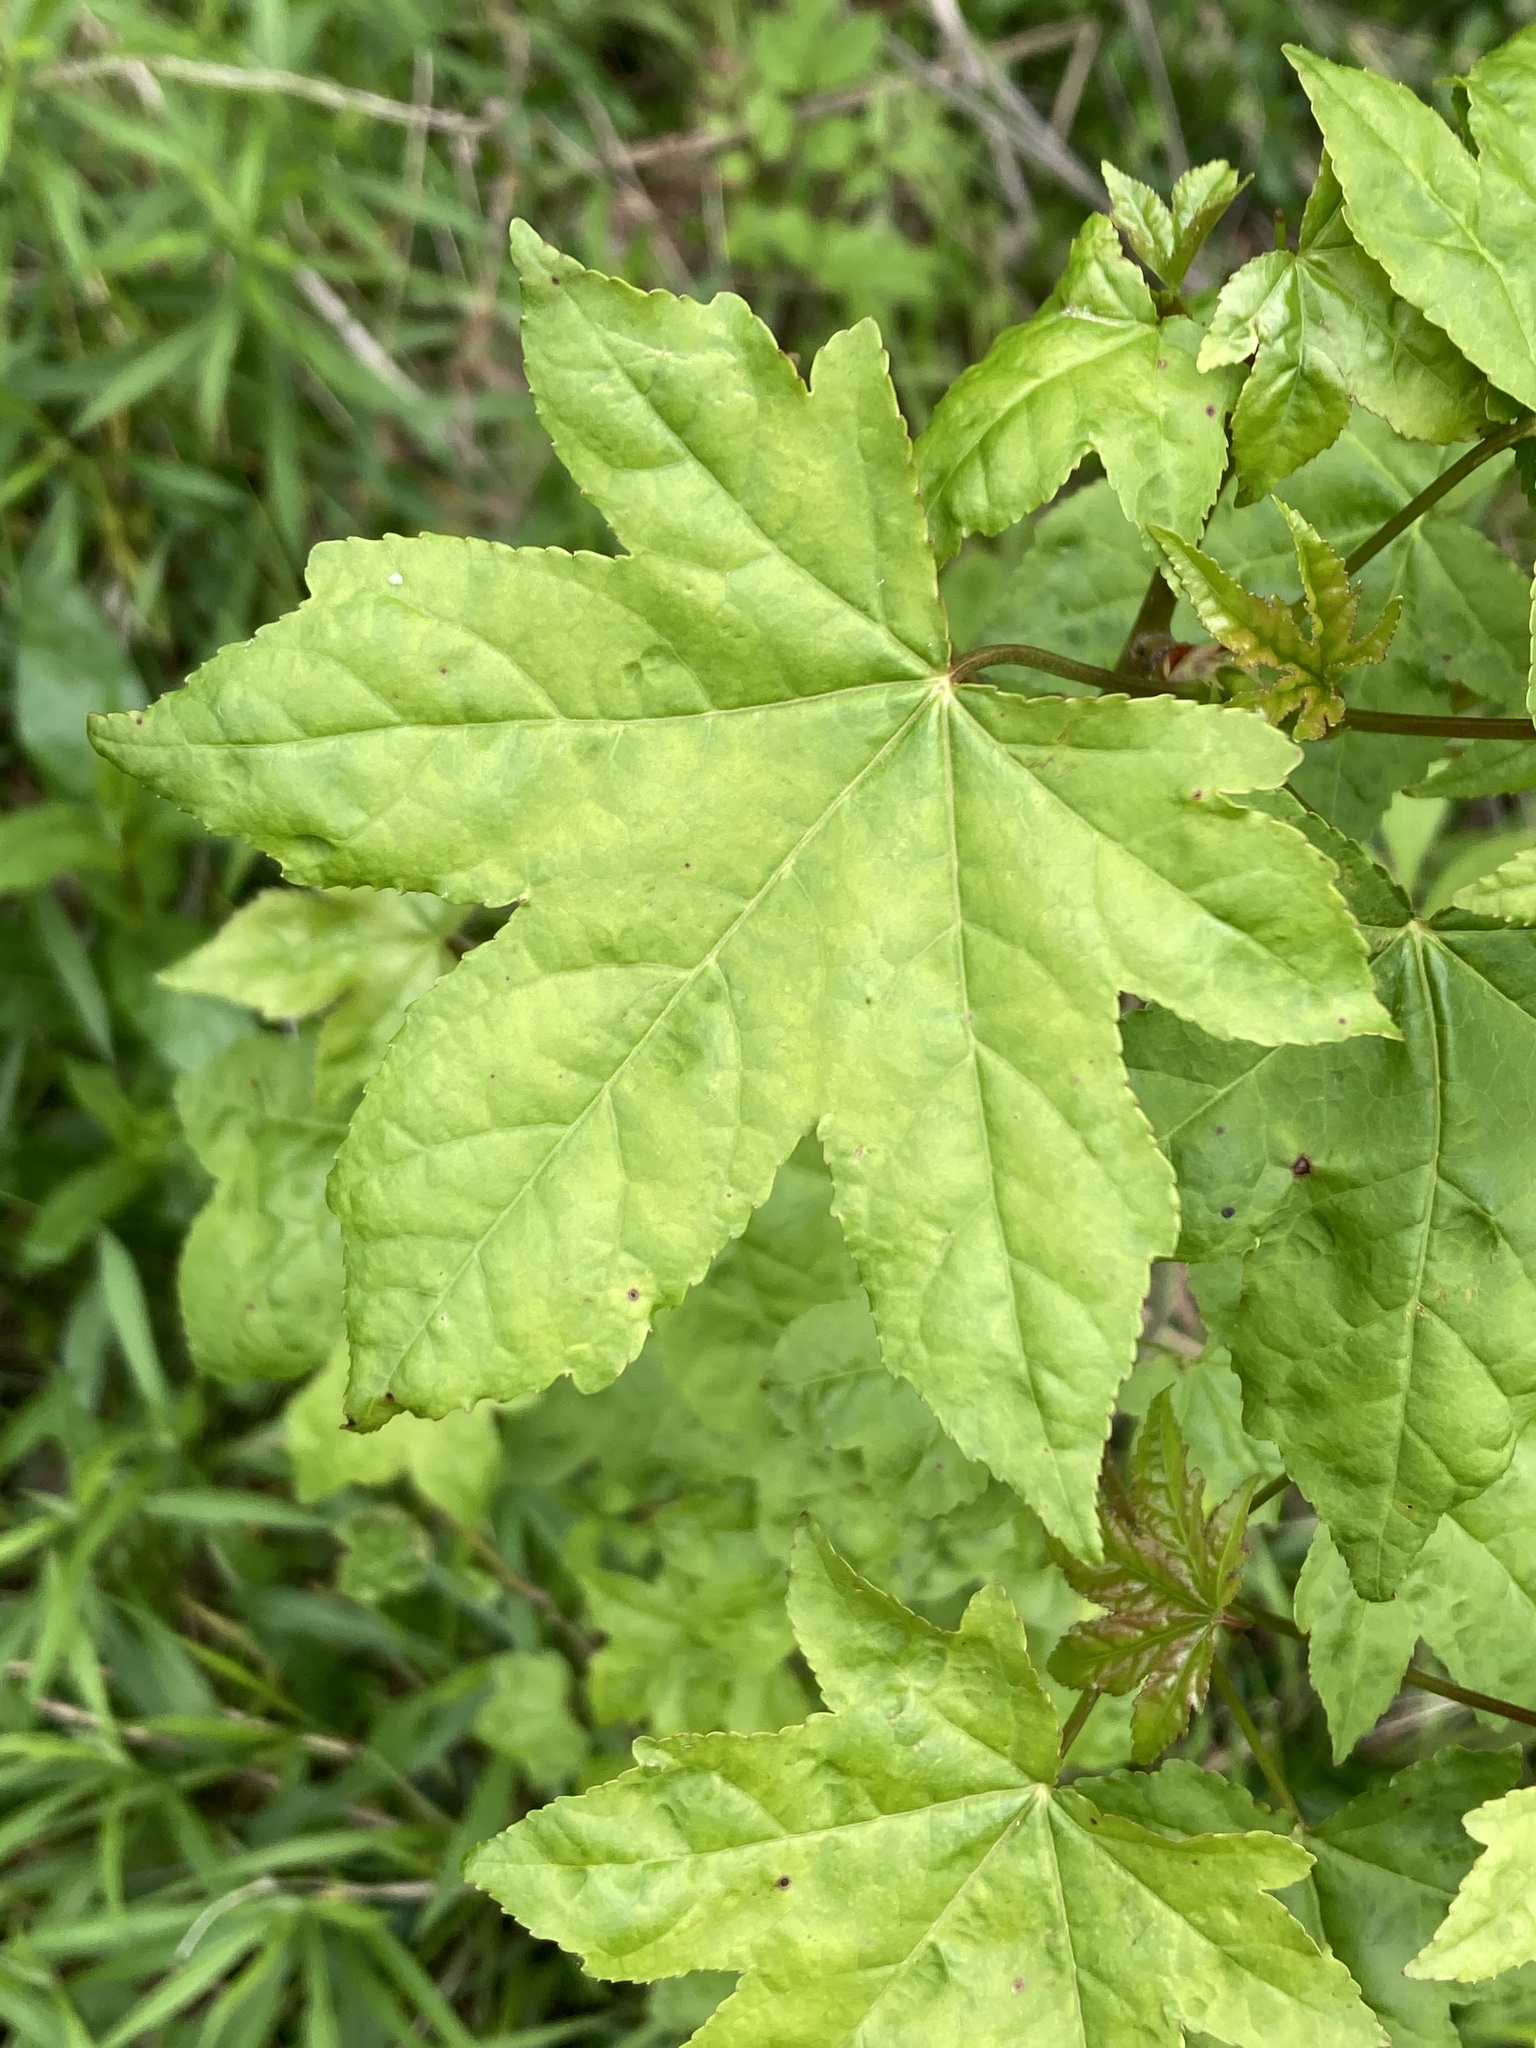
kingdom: Plantae
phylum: Tracheophyta
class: Magnoliopsida
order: Saxifragales
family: Altingiaceae
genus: Liquidambar
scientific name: Liquidambar styraciflua
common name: Sweet gum
